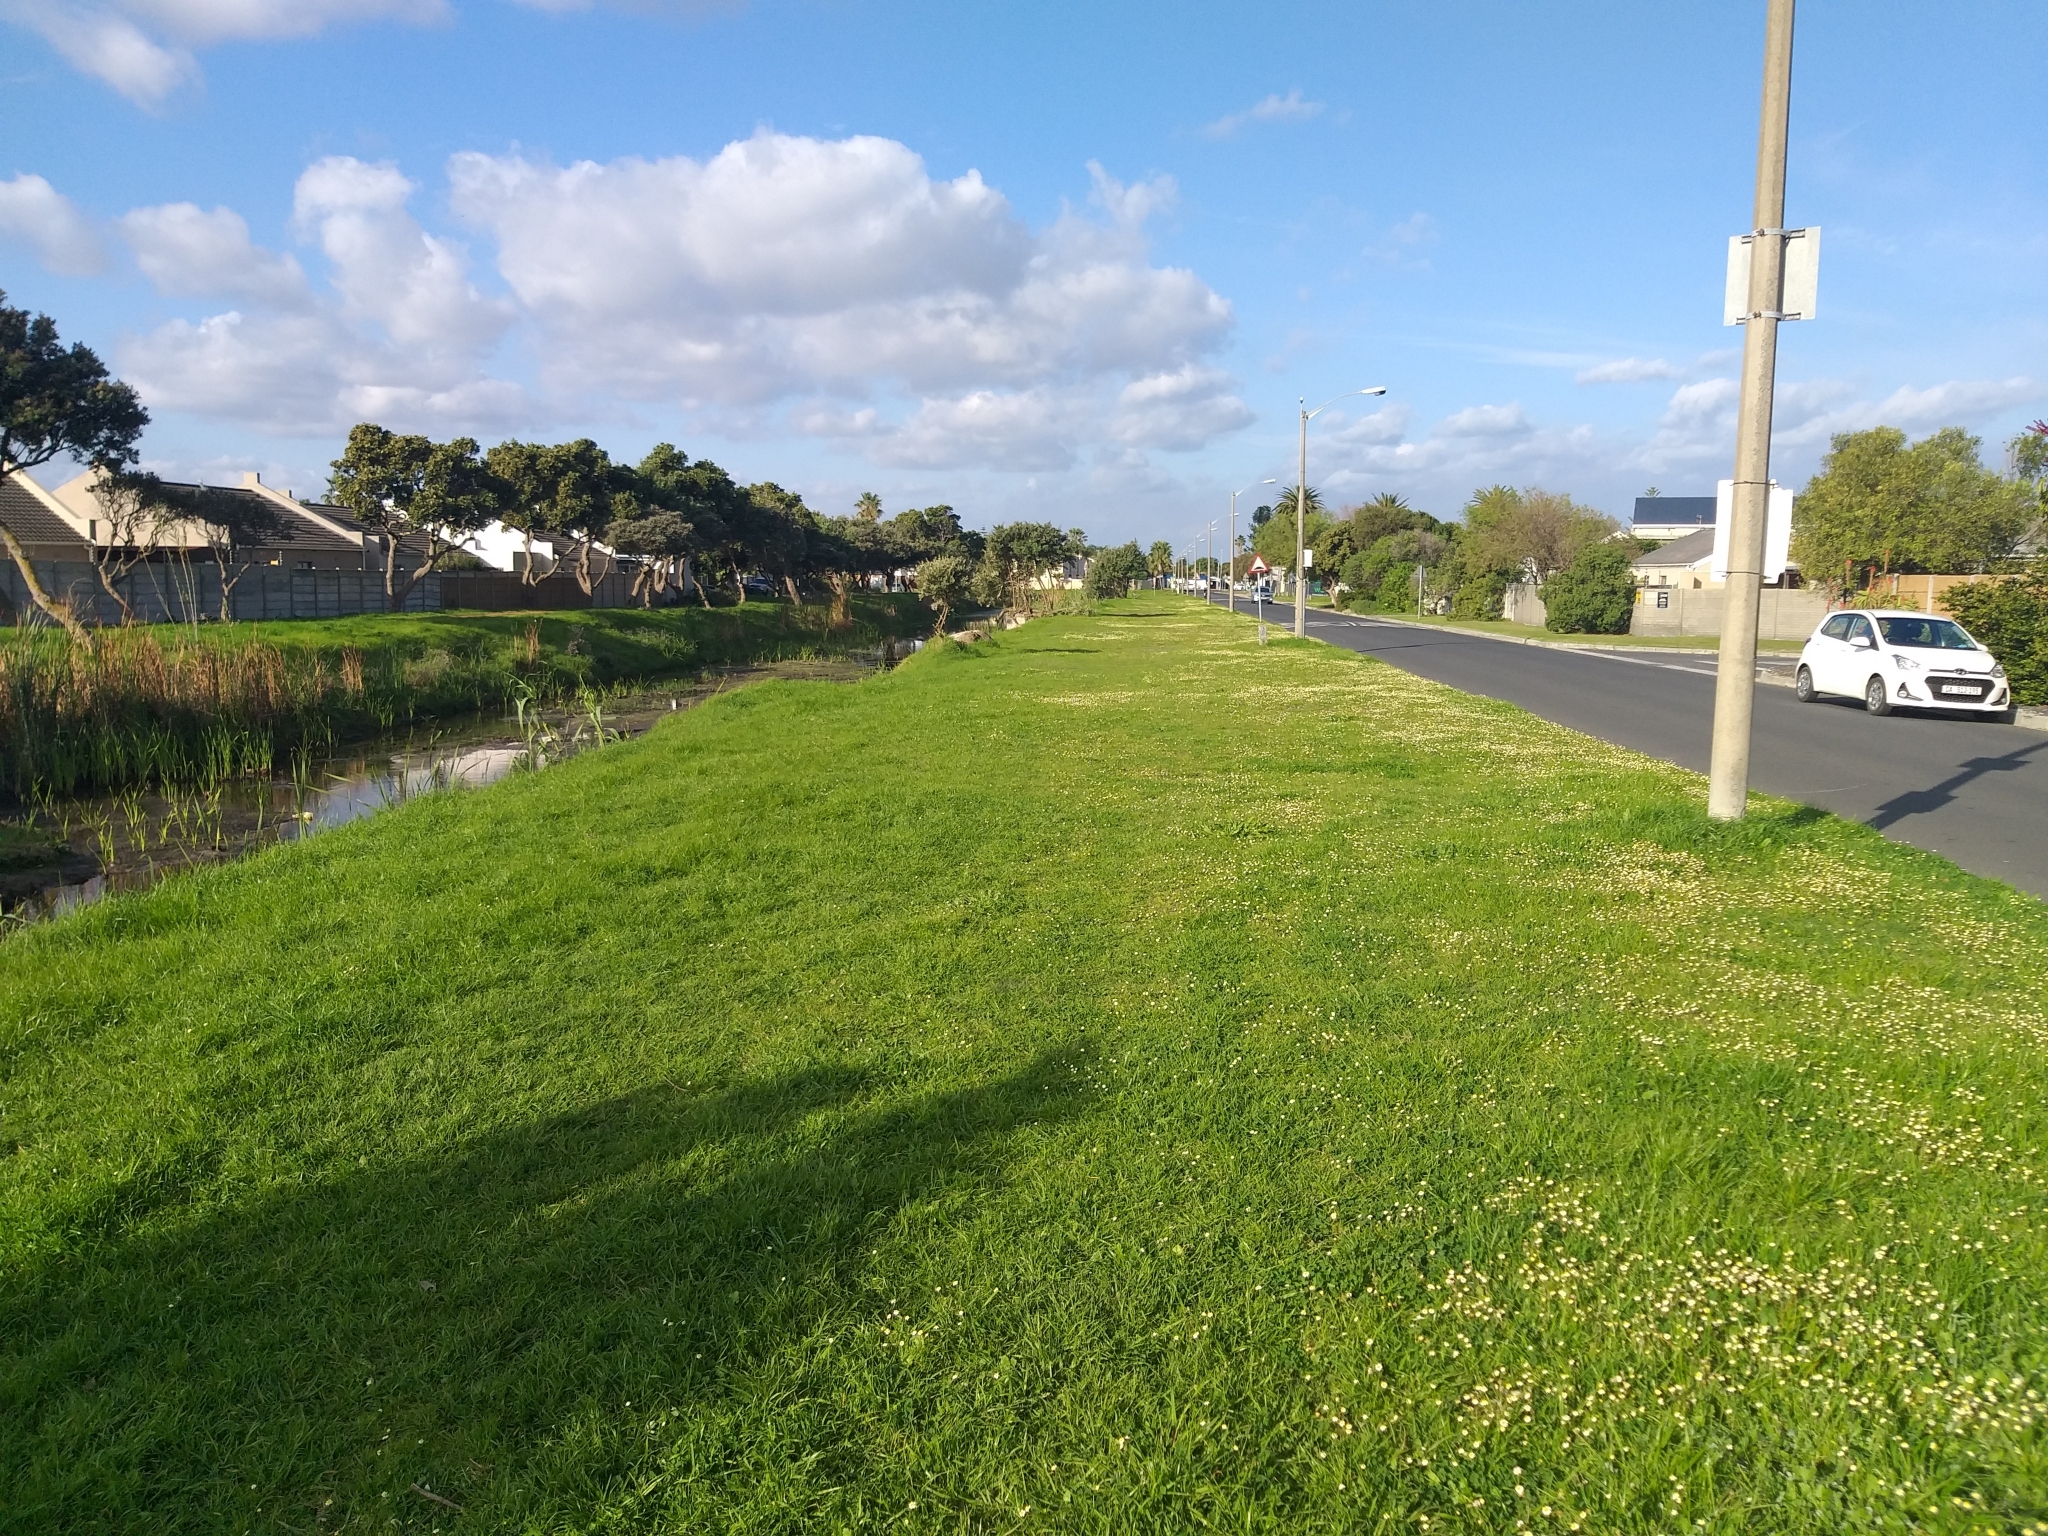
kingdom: Plantae
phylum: Tracheophyta
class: Magnoliopsida
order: Asterales
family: Asteraceae
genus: Cotula
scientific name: Cotula turbinata
